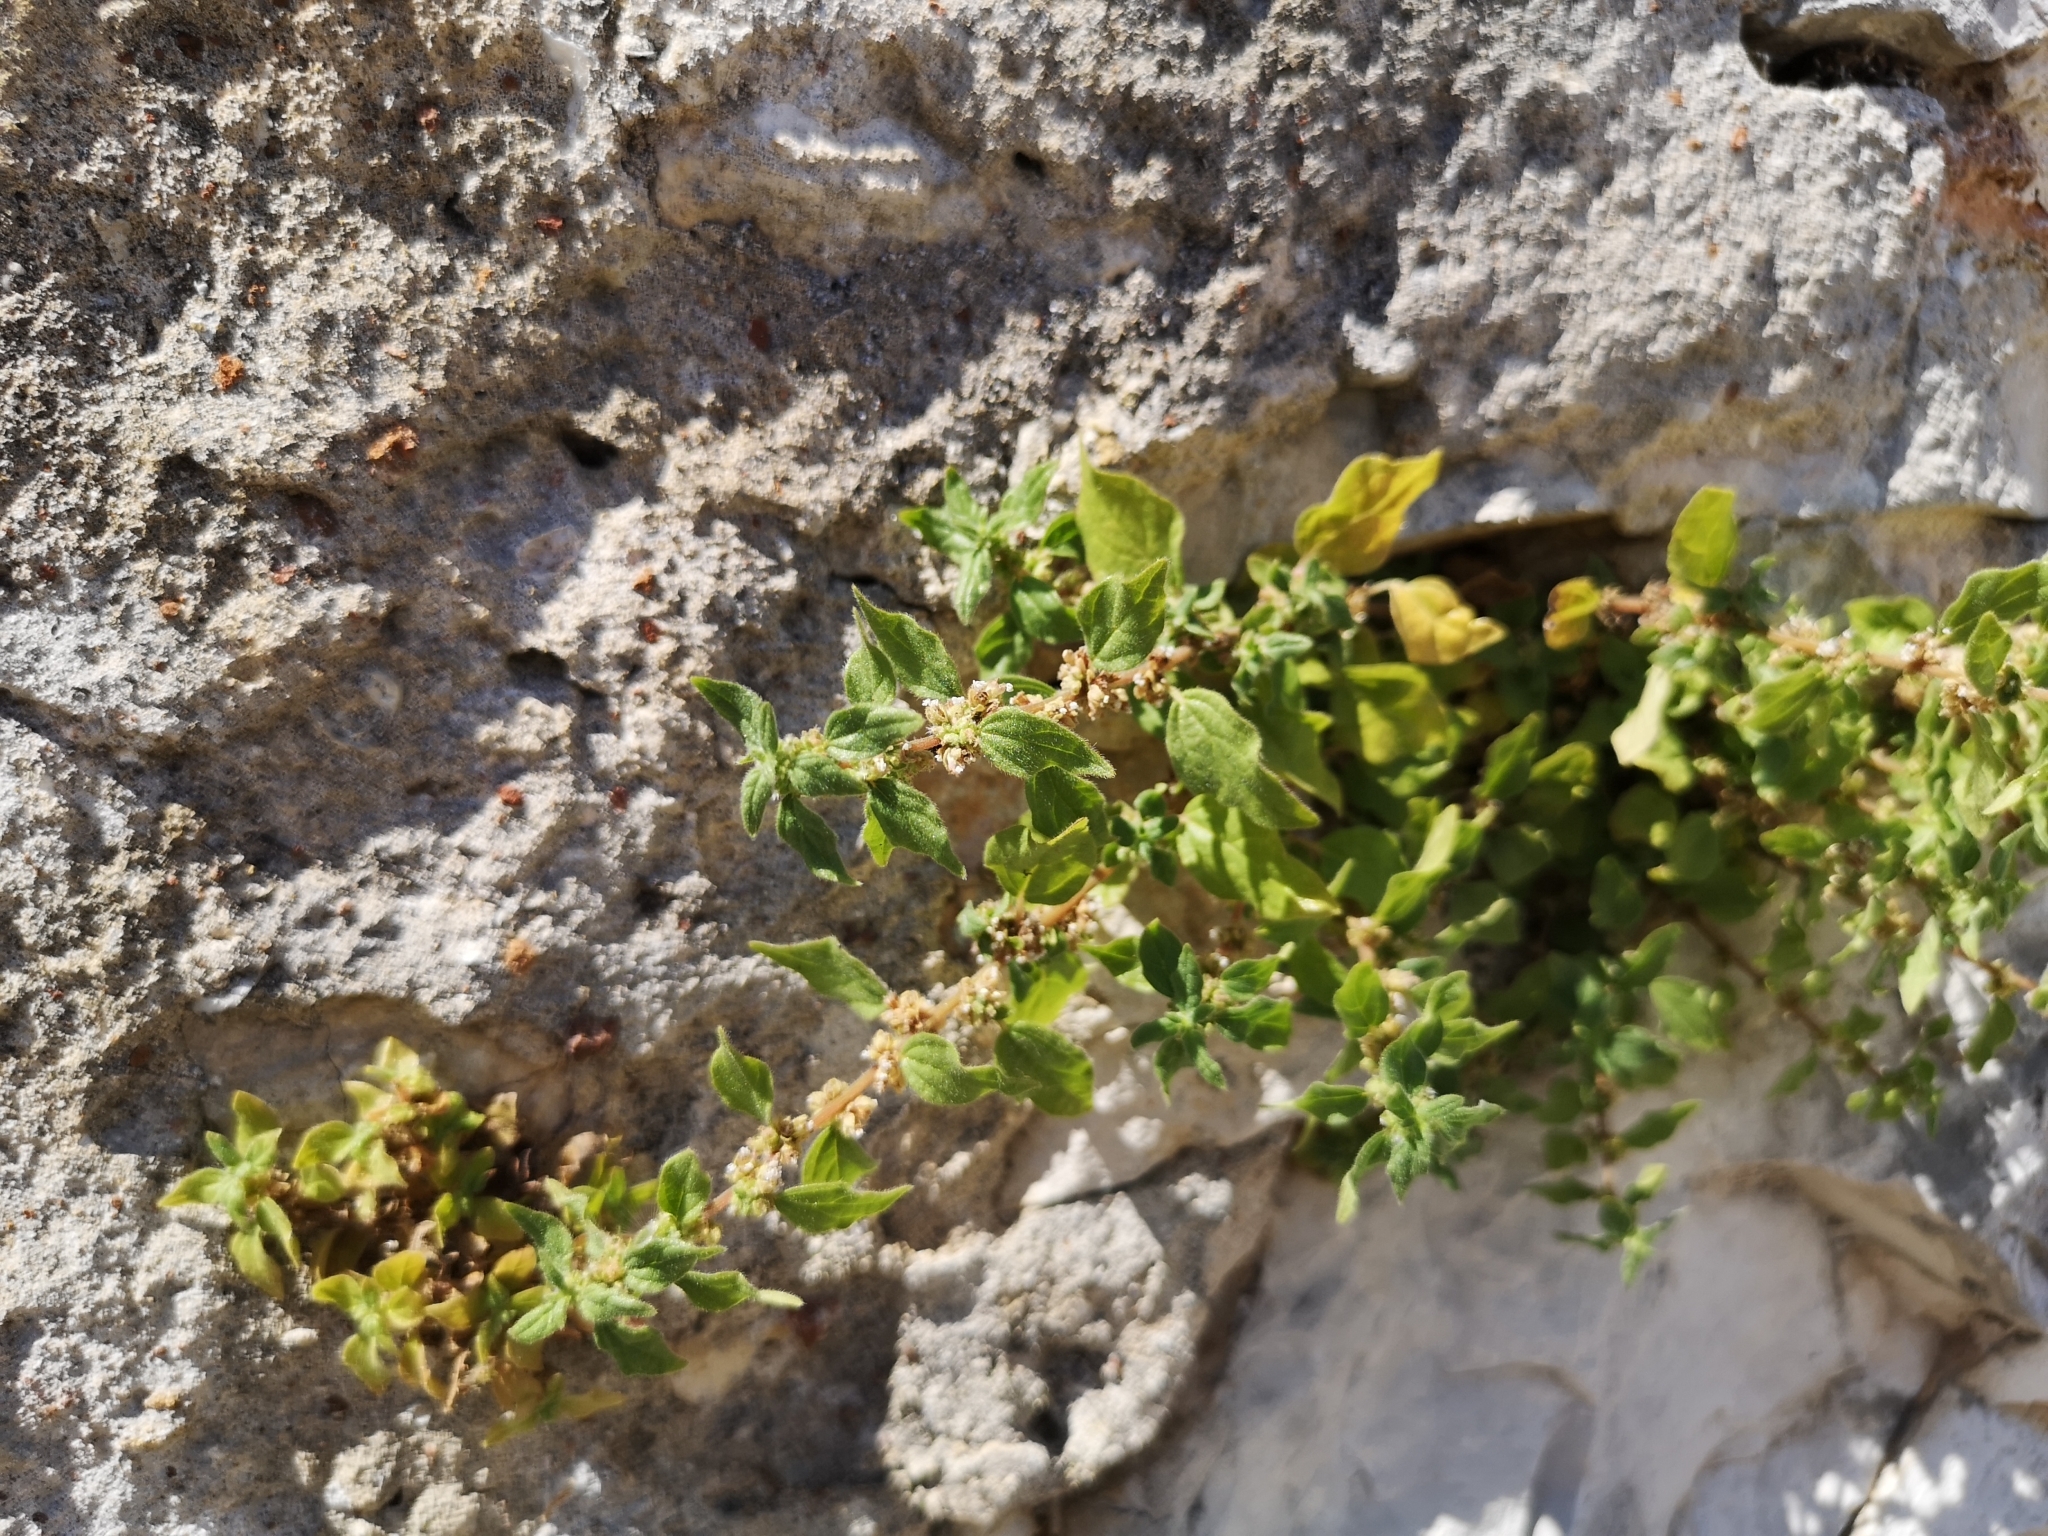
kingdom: Plantae
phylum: Tracheophyta
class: Magnoliopsida
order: Rosales
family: Urticaceae
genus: Parietaria
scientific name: Parietaria judaica
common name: Pellitory-of-the-wall
